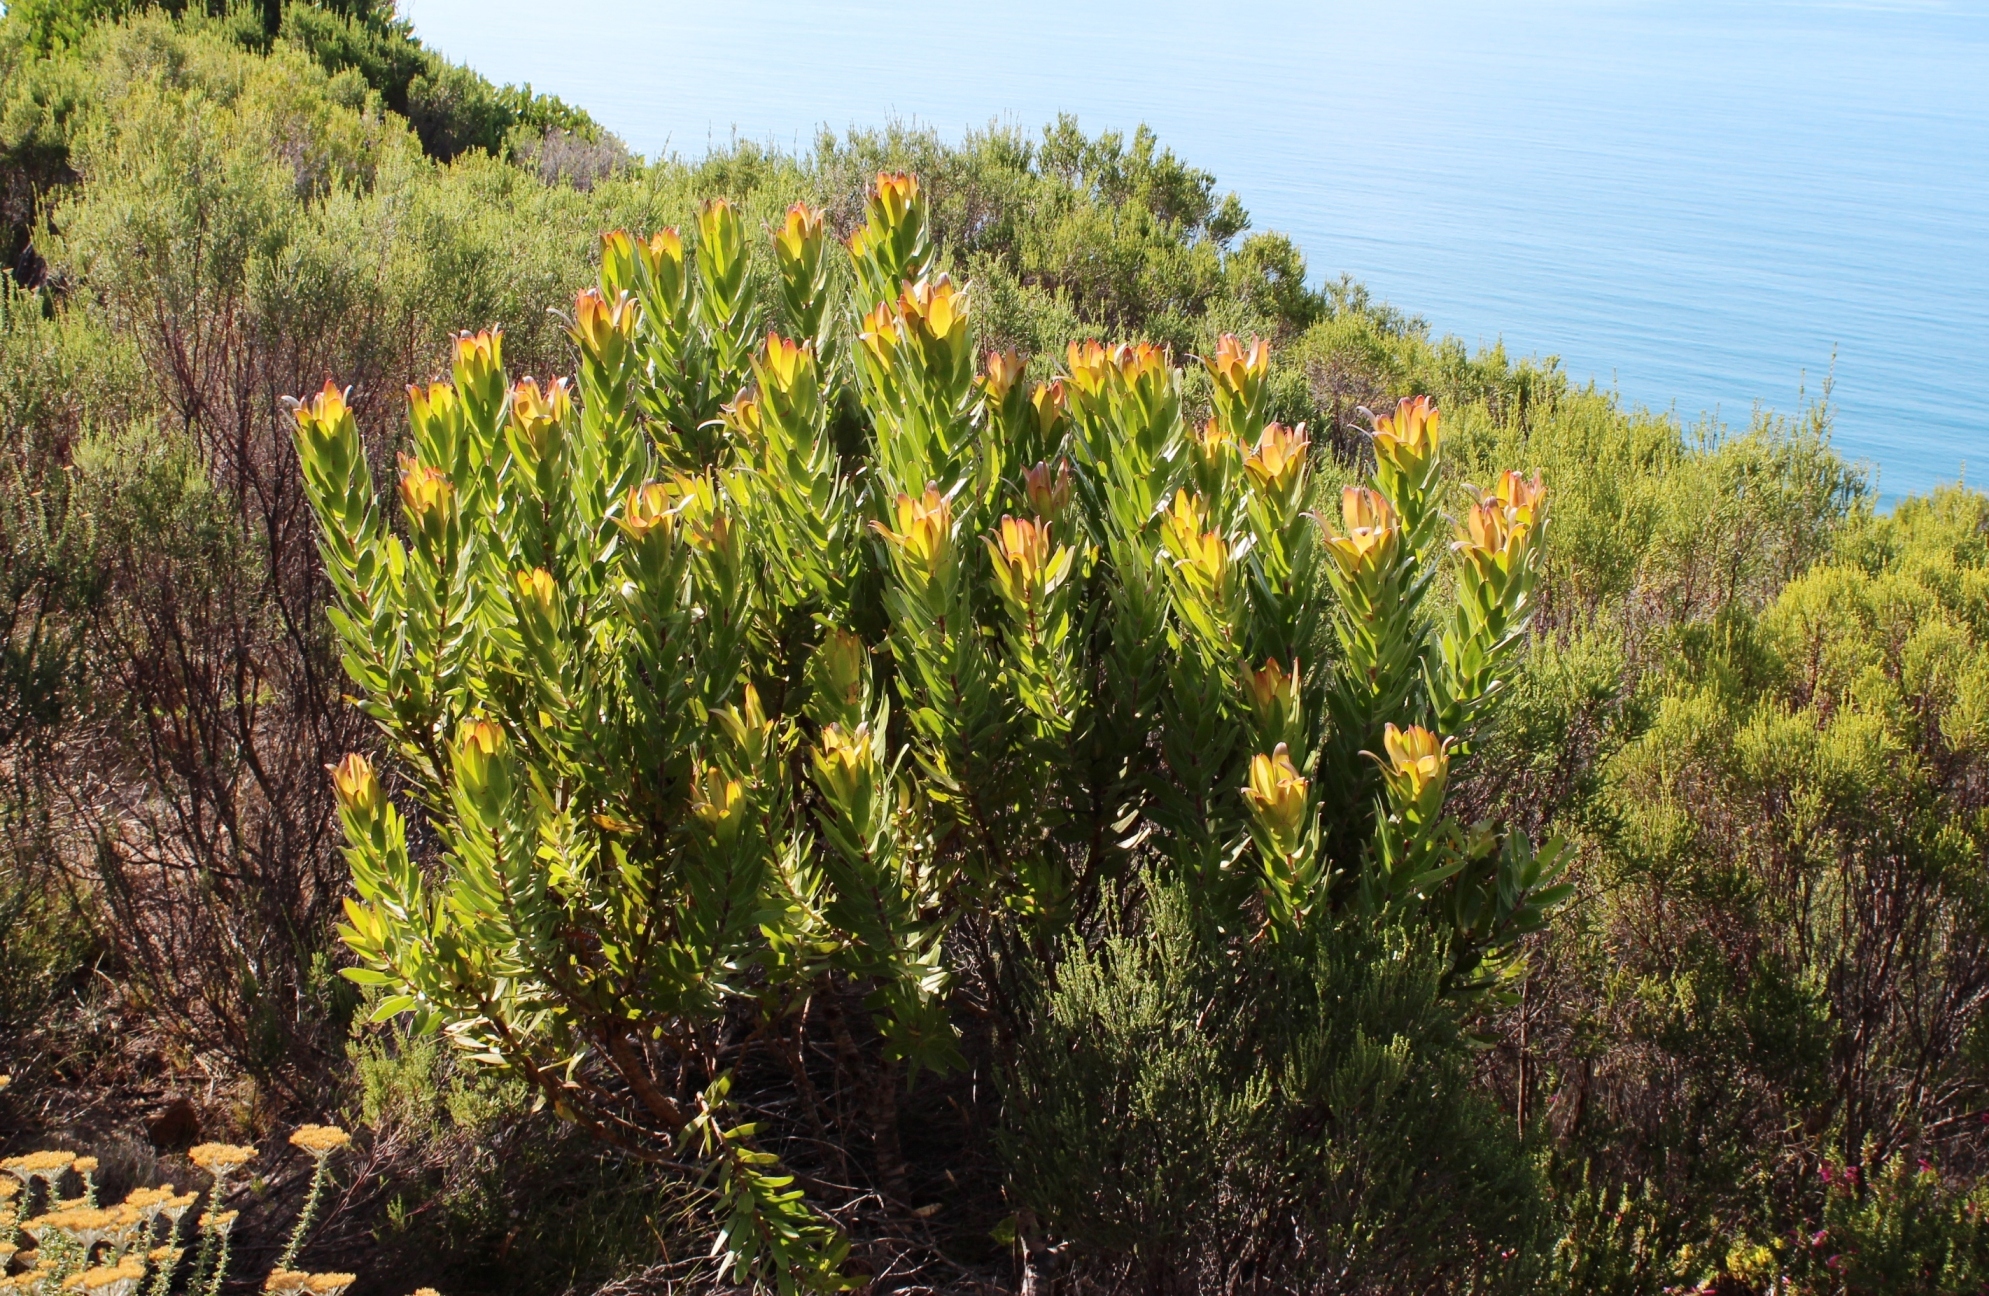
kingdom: Plantae
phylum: Tracheophyta
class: Magnoliopsida
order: Proteales
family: Proteaceae
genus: Leucadendron
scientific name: Leucadendron laureolum
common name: Golden sunshinebush
